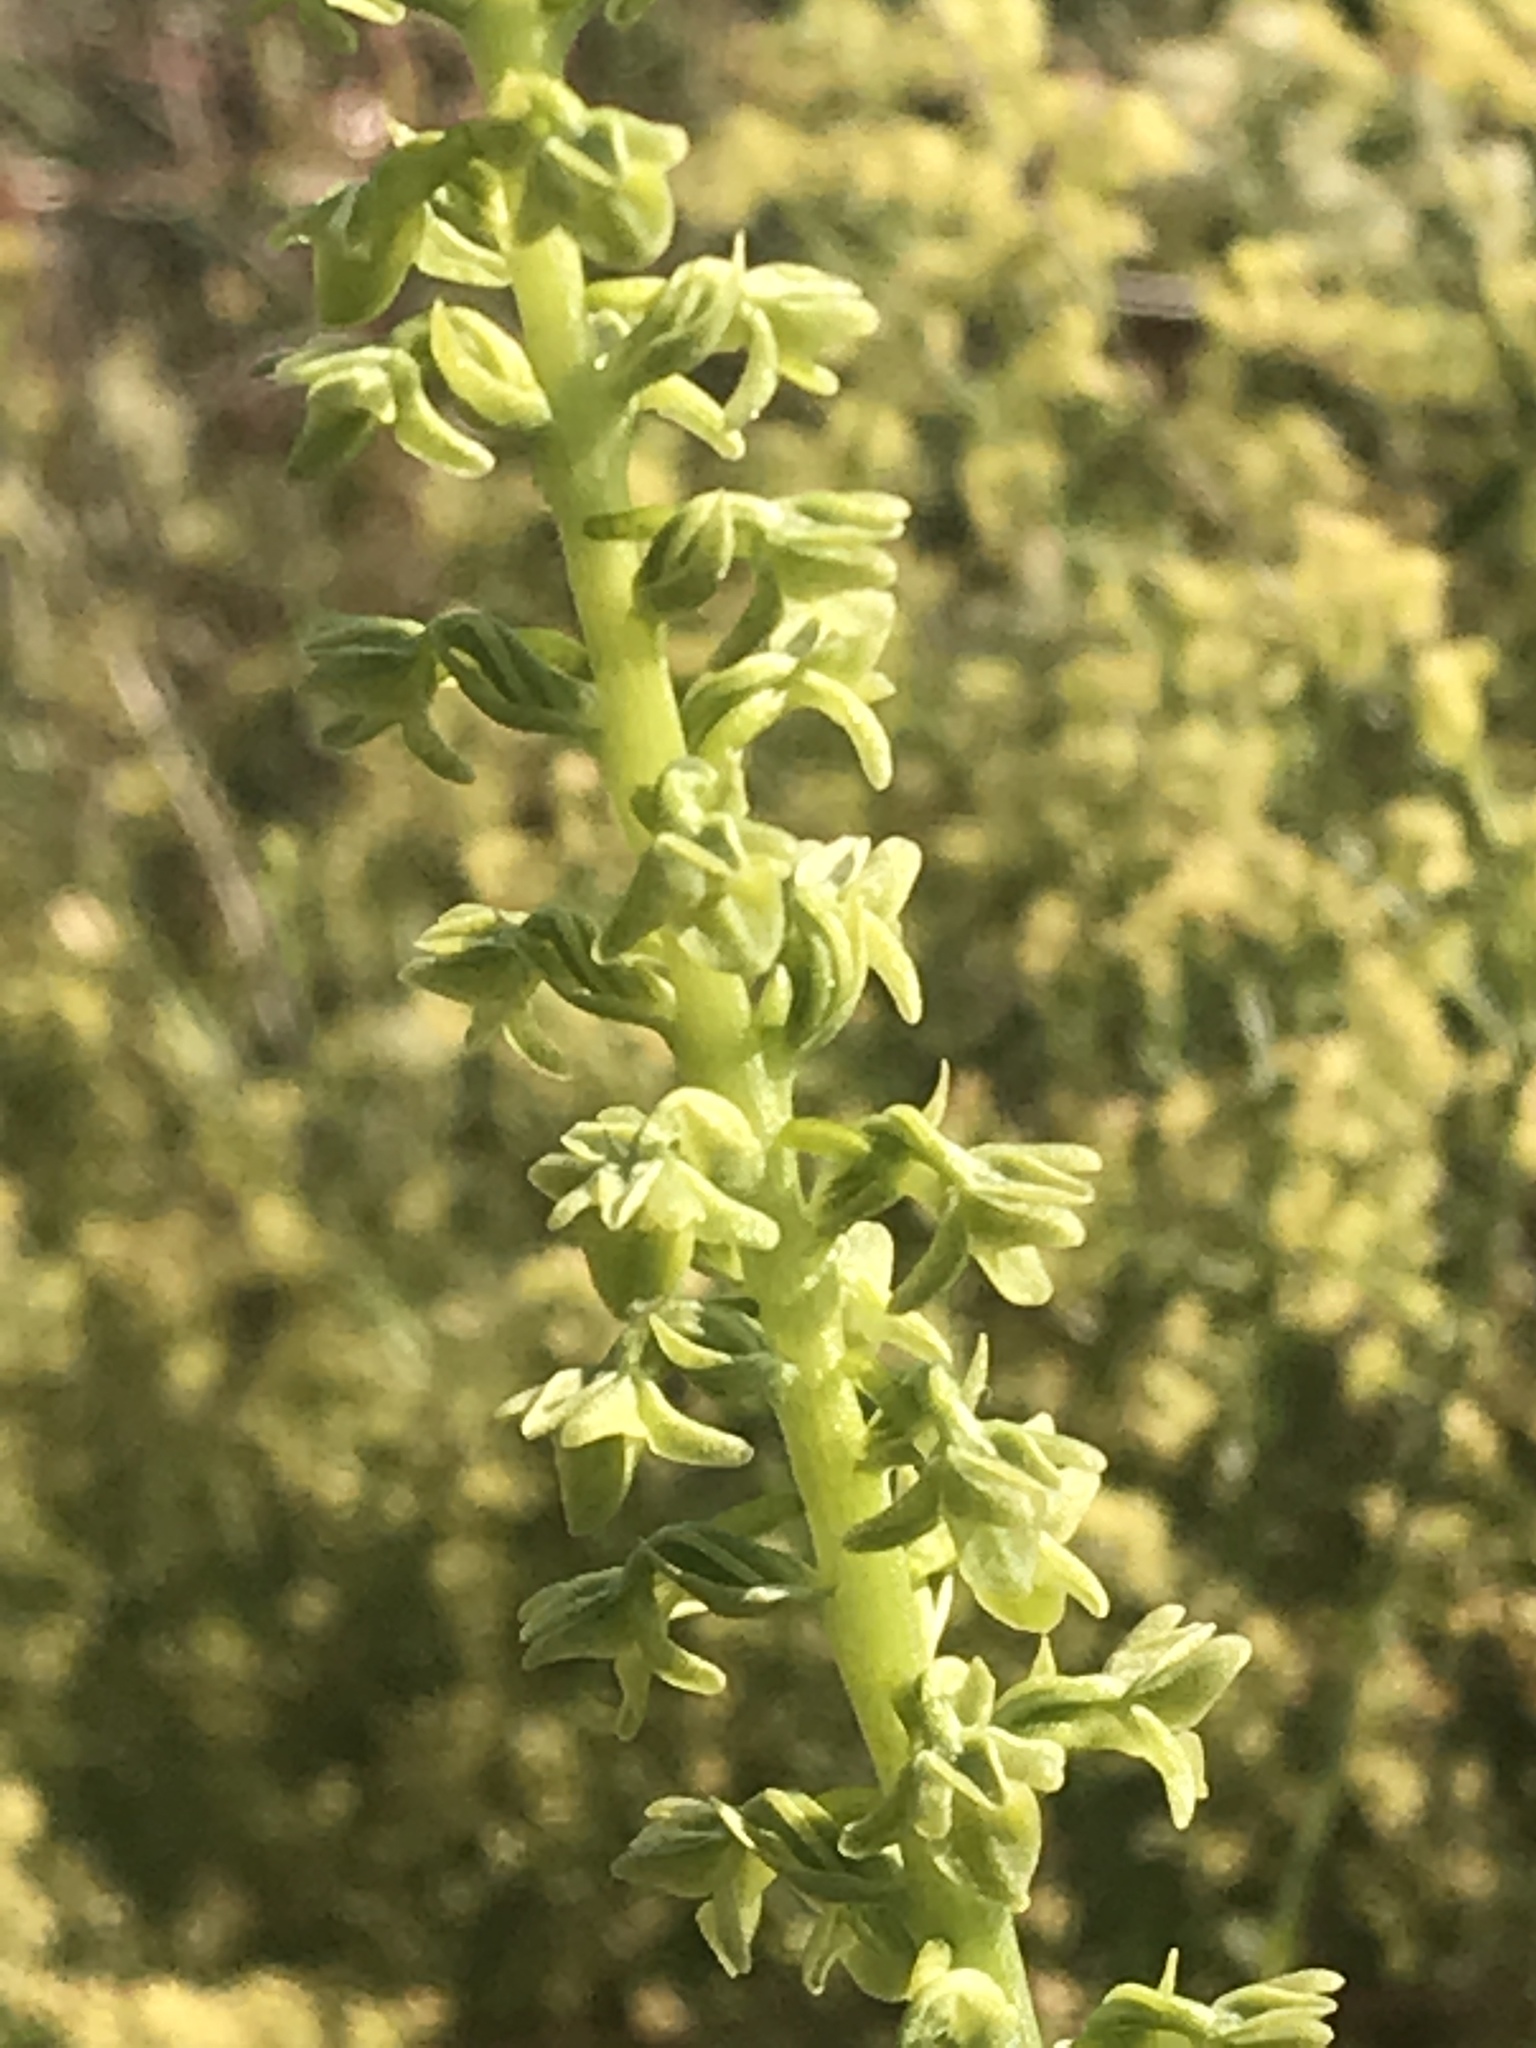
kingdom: Plantae
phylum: Tracheophyta
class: Liliopsida
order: Asparagales
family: Orchidaceae
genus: Platanthera
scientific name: Platanthera cooperi
